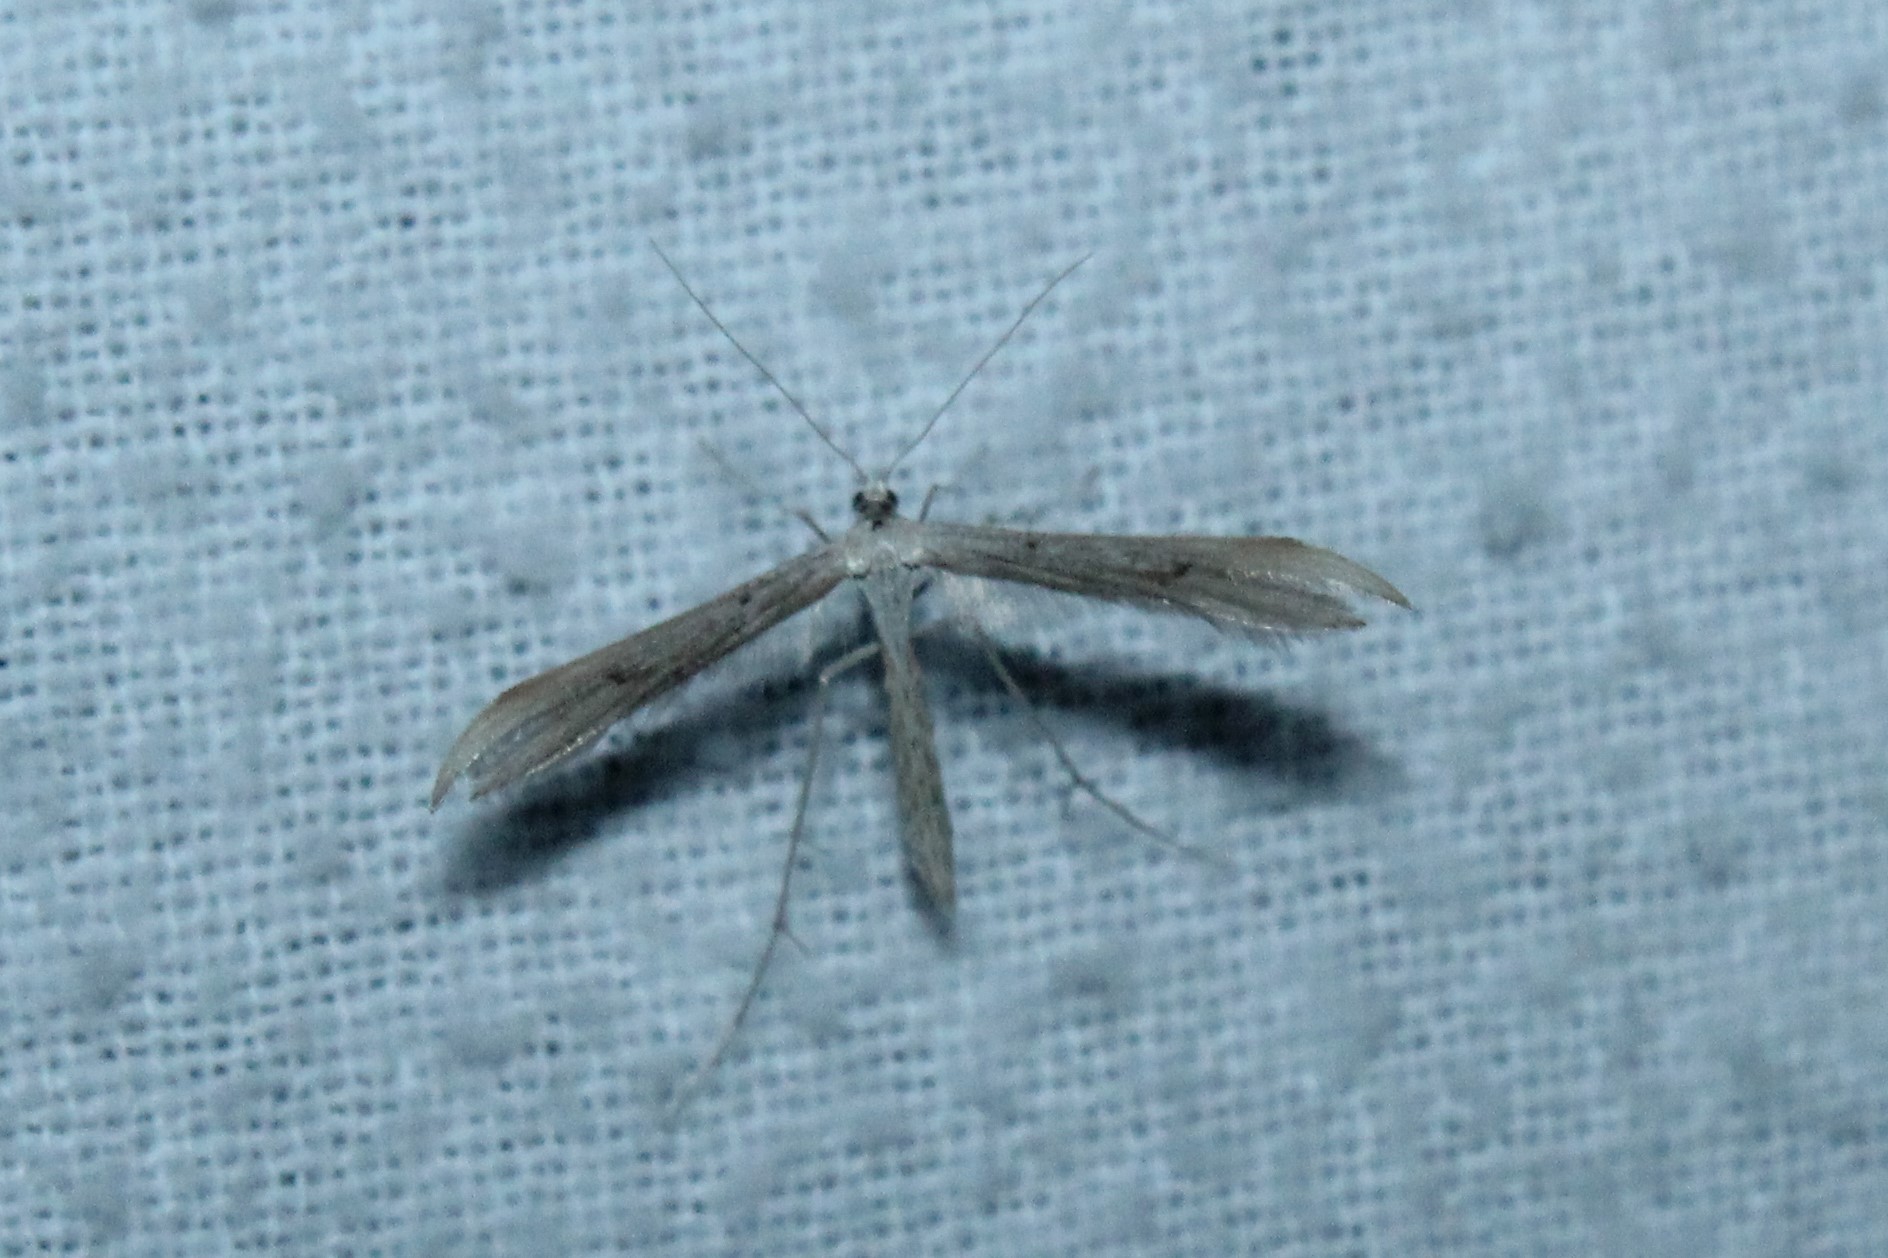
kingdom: Animalia
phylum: Arthropoda
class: Insecta
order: Lepidoptera
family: Pterophoridae
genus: Emmelina
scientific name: Emmelina monodactyla
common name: Common plume
